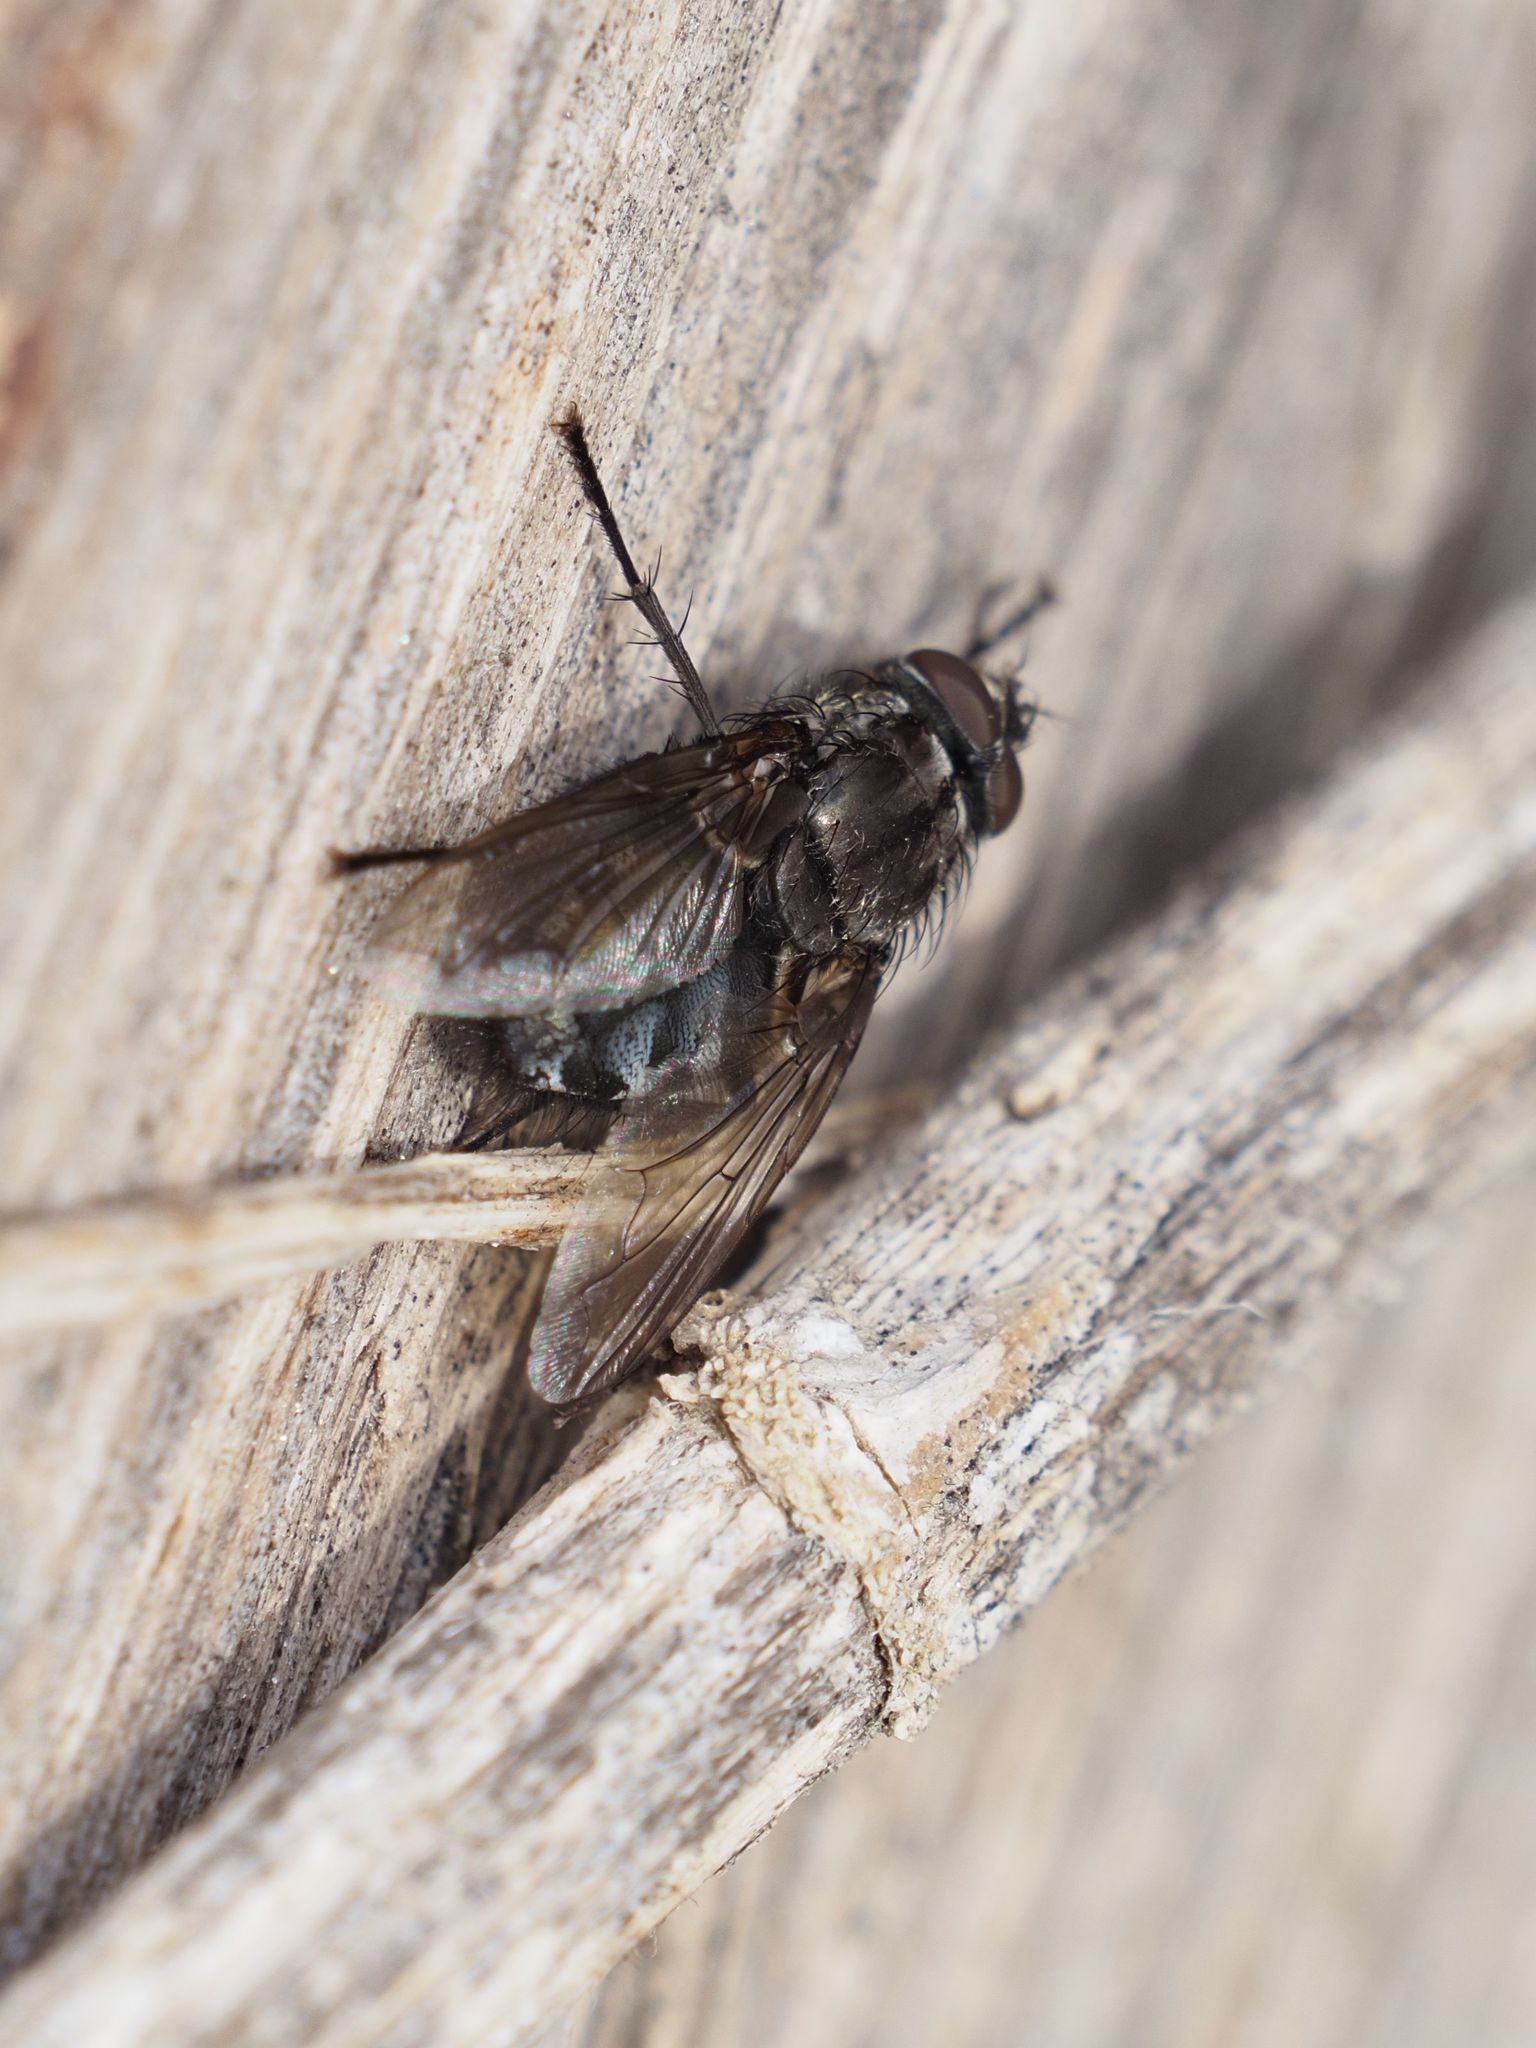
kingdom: Animalia
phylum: Arthropoda
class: Insecta
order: Diptera
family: Polleniidae
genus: Pollenia
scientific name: Pollenia vagabunda
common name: Vagabund cluster fly
